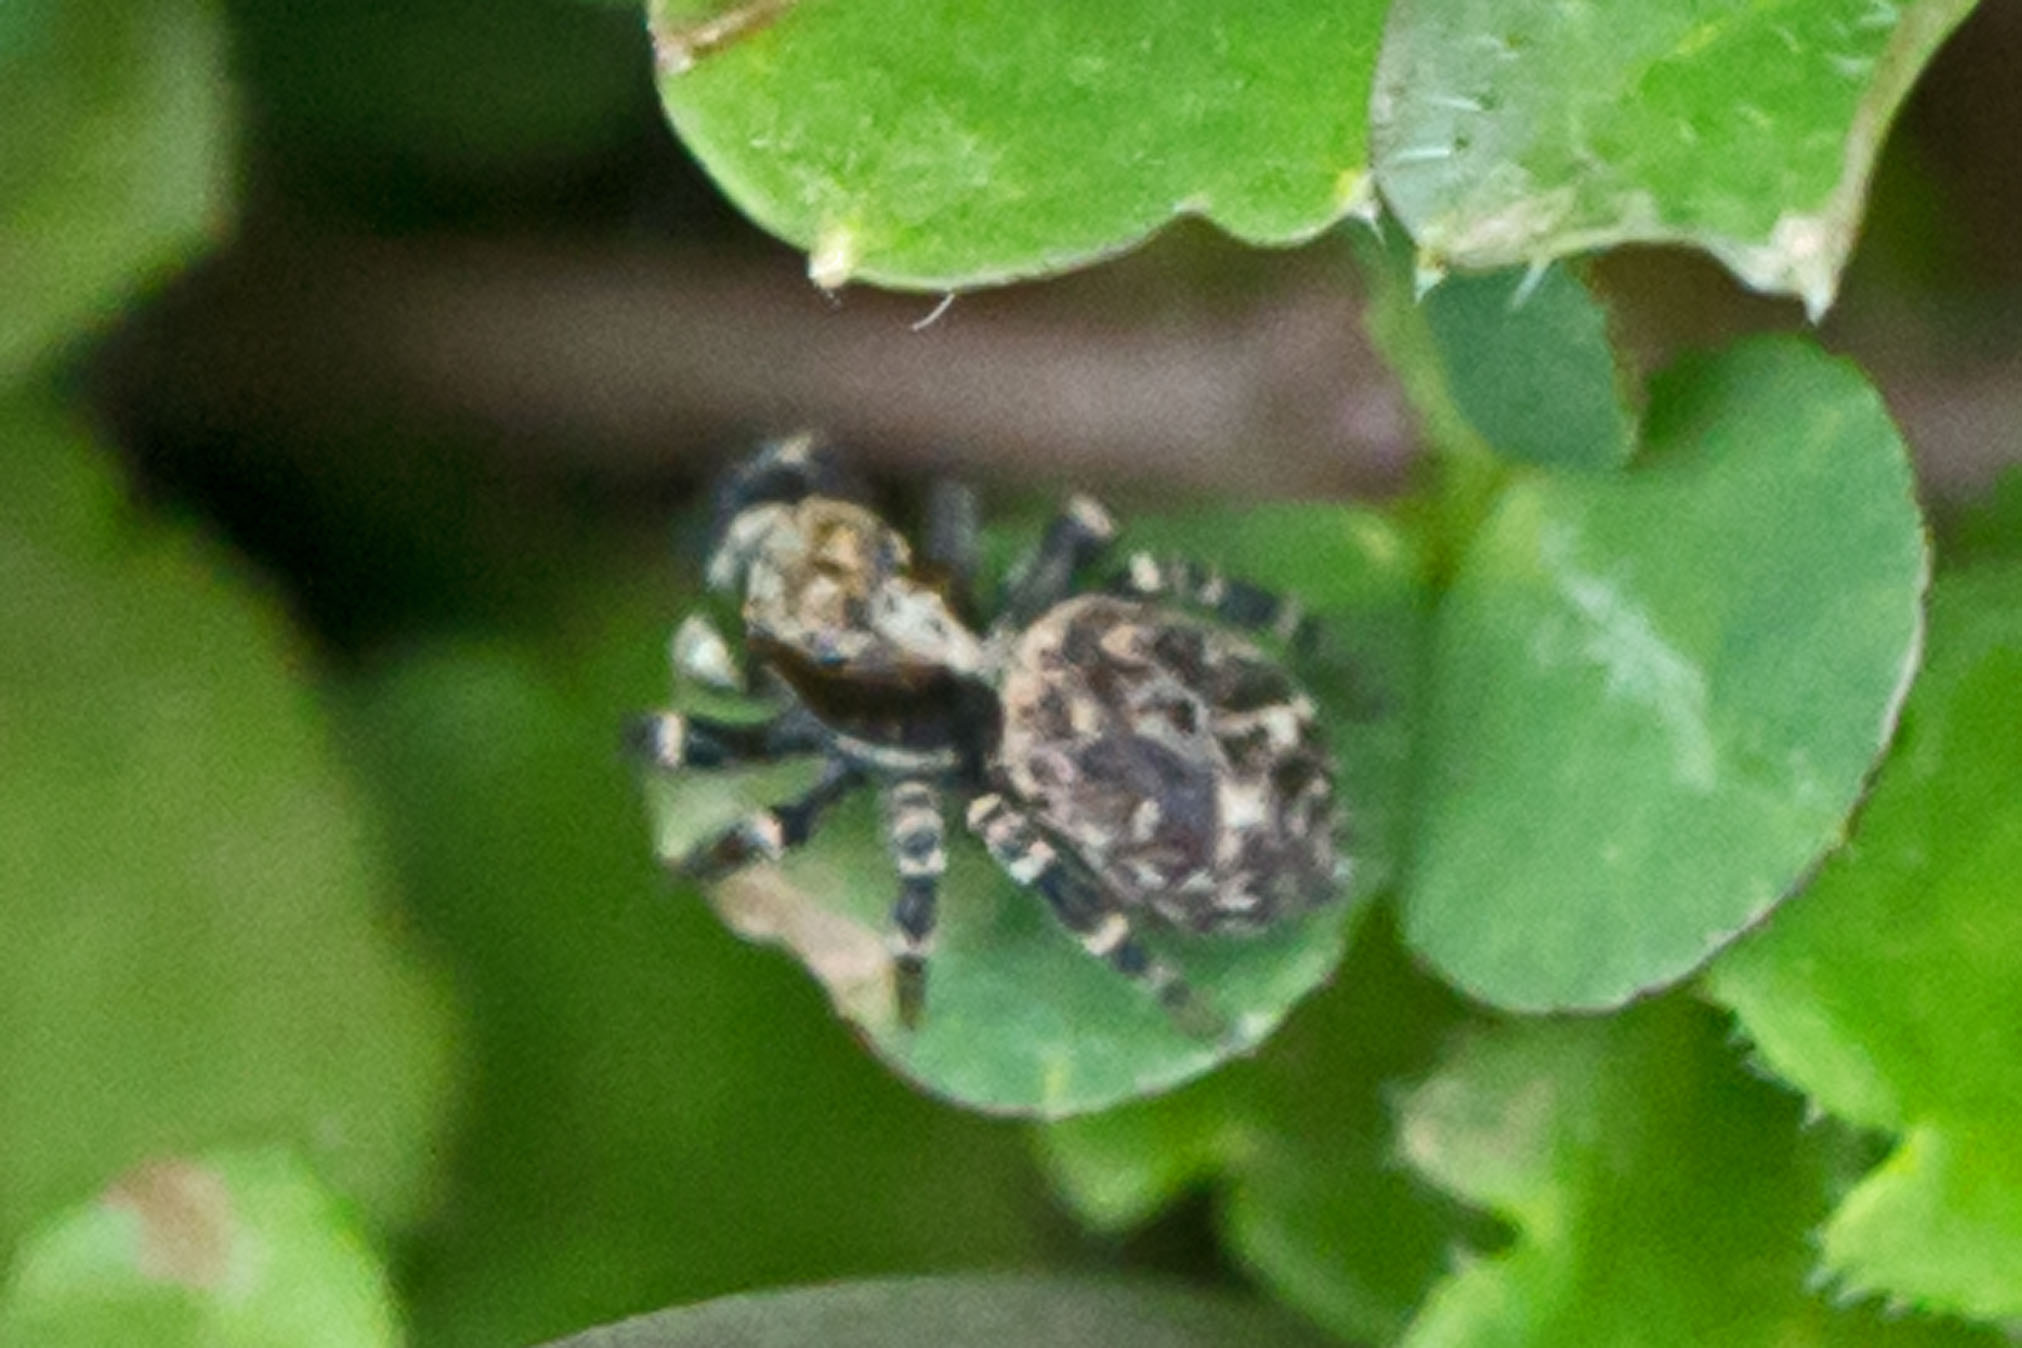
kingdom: Animalia
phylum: Arthropoda
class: Arachnida
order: Araneae
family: Salticidae
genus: Pseudeuophrys
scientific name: Pseudeuophrys erratica
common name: Jumping spider
